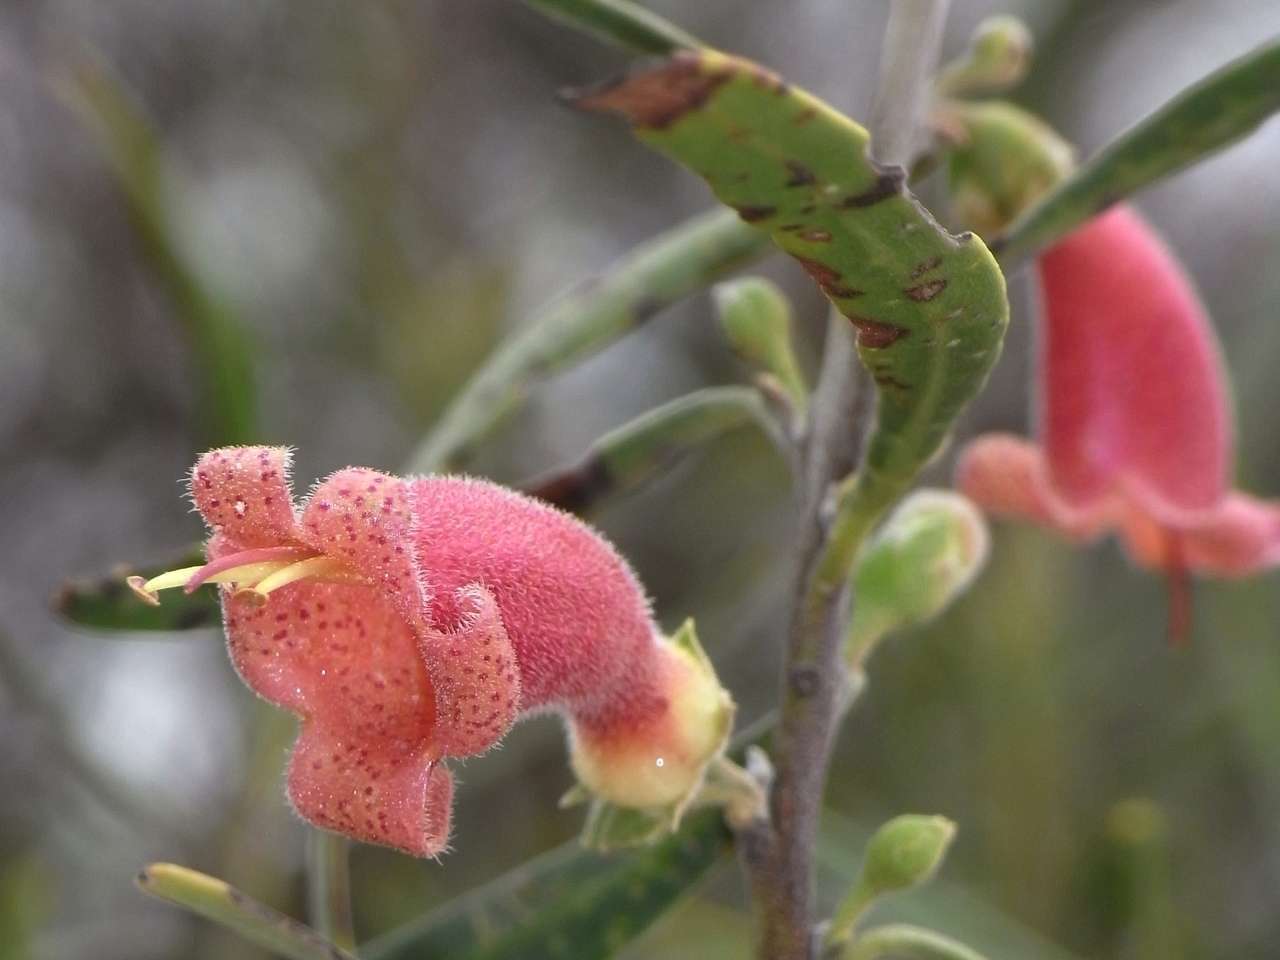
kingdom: Plantae
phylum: Tracheophyta
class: Magnoliopsida
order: Lamiales
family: Scrophulariaceae
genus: Eremophila
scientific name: Eremophila longifolia
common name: Longleaf emubush
